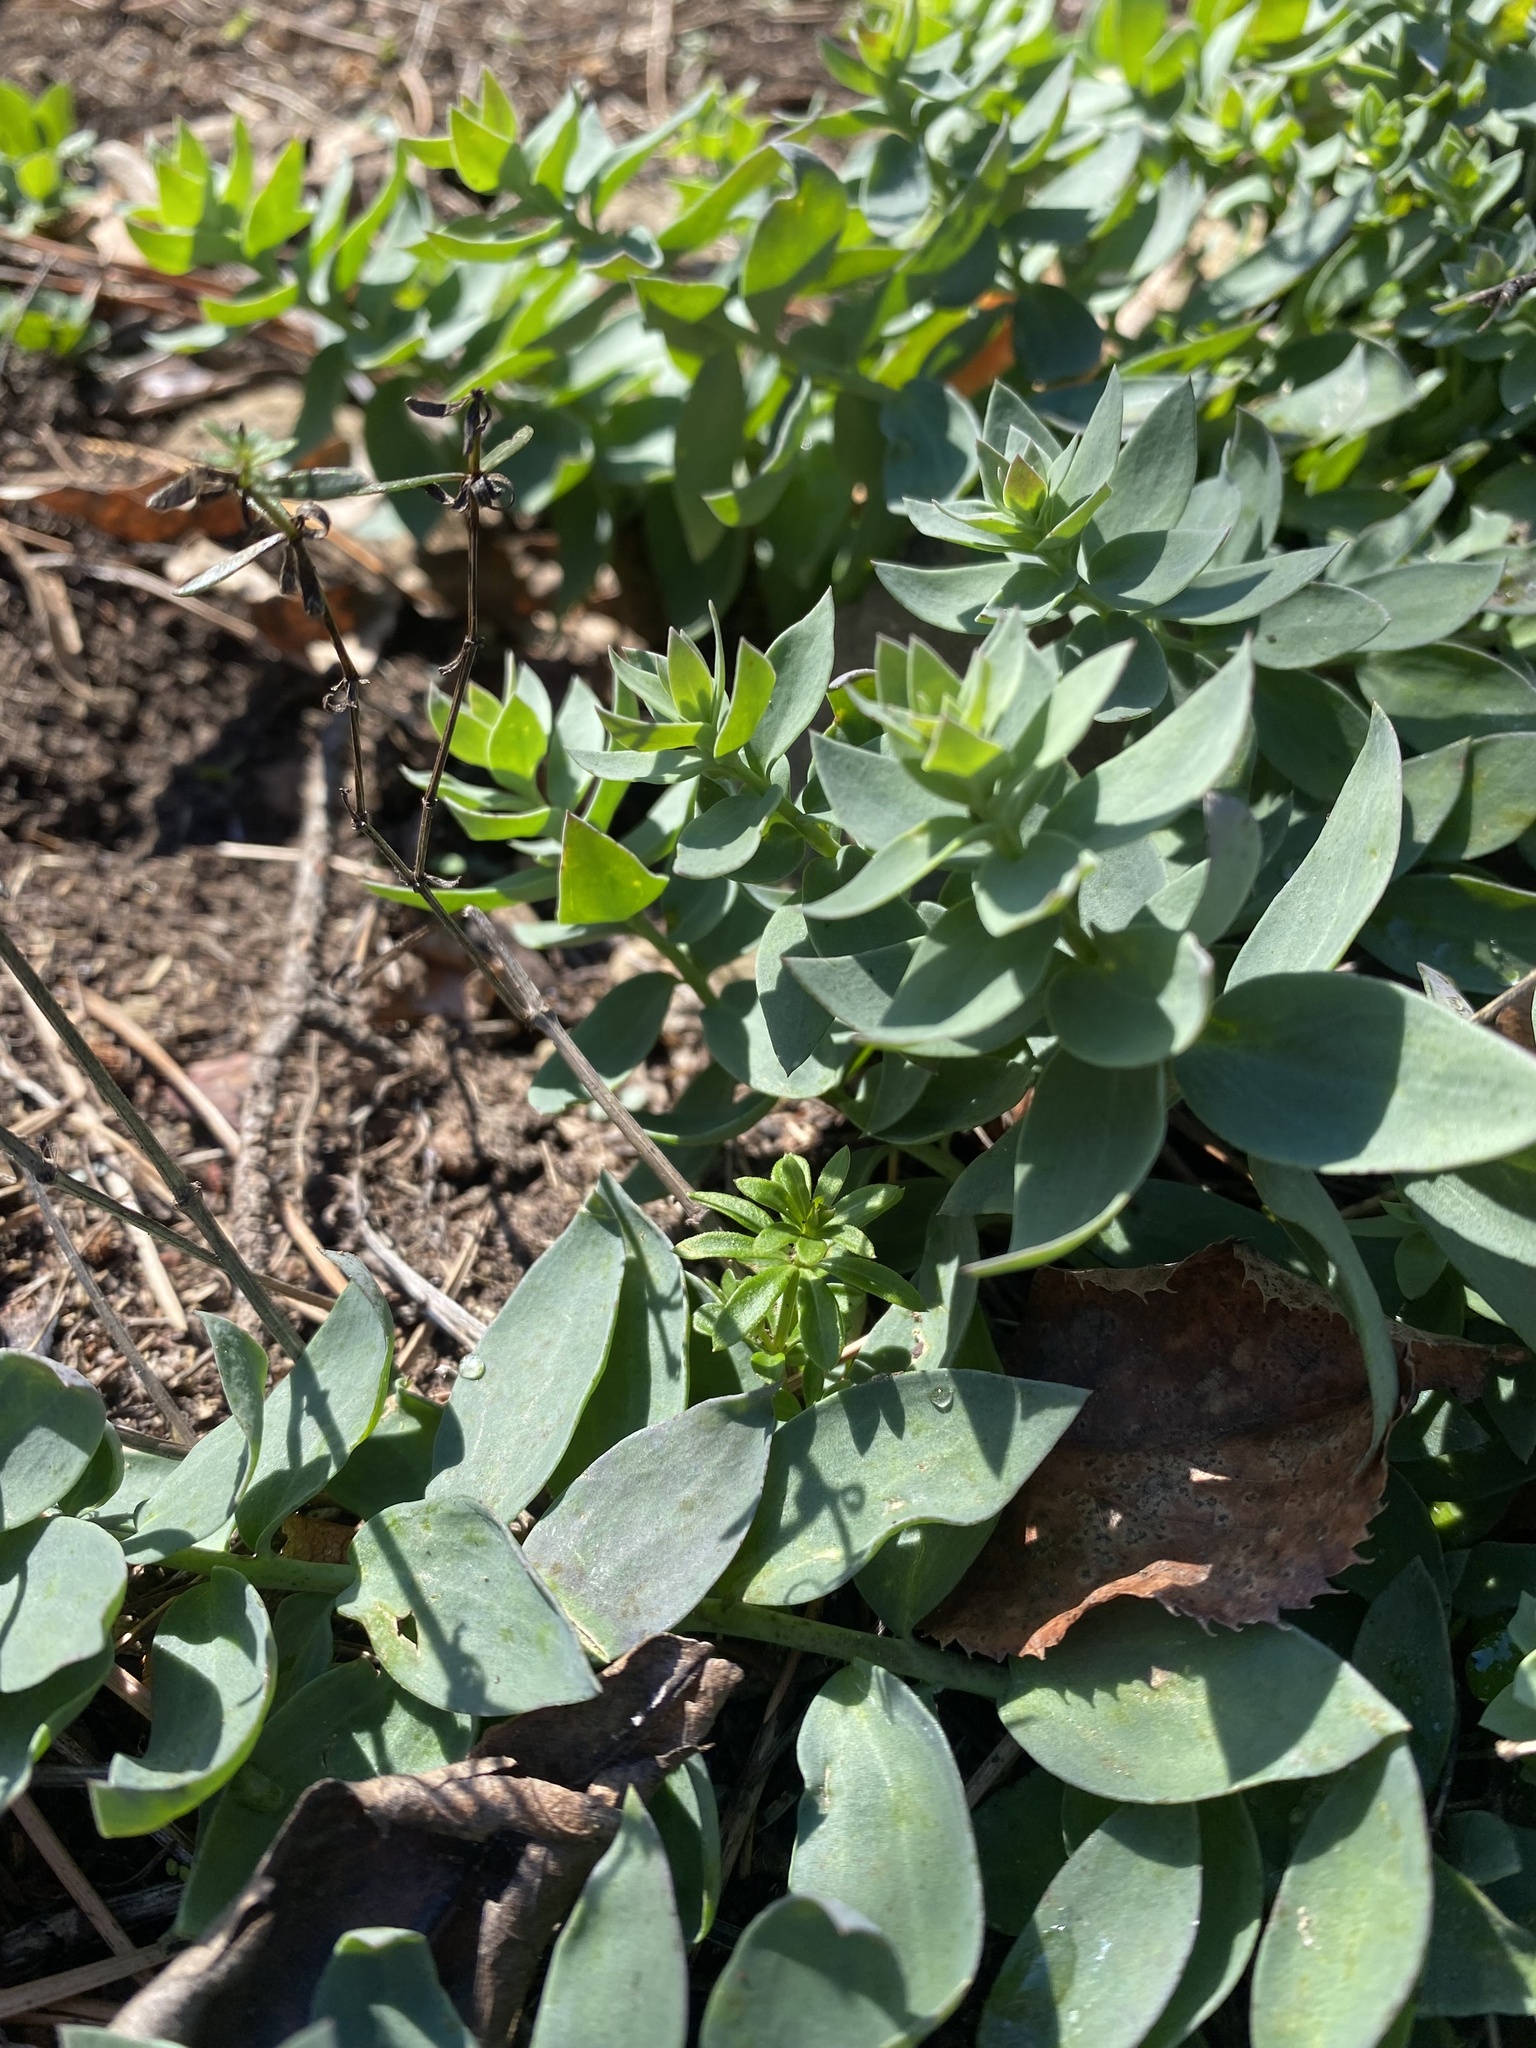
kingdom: Plantae
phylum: Tracheophyta
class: Magnoliopsida
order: Lamiales
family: Plantaginaceae
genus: Linaria
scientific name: Linaria genistifolia
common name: Broomleaf toadflax
